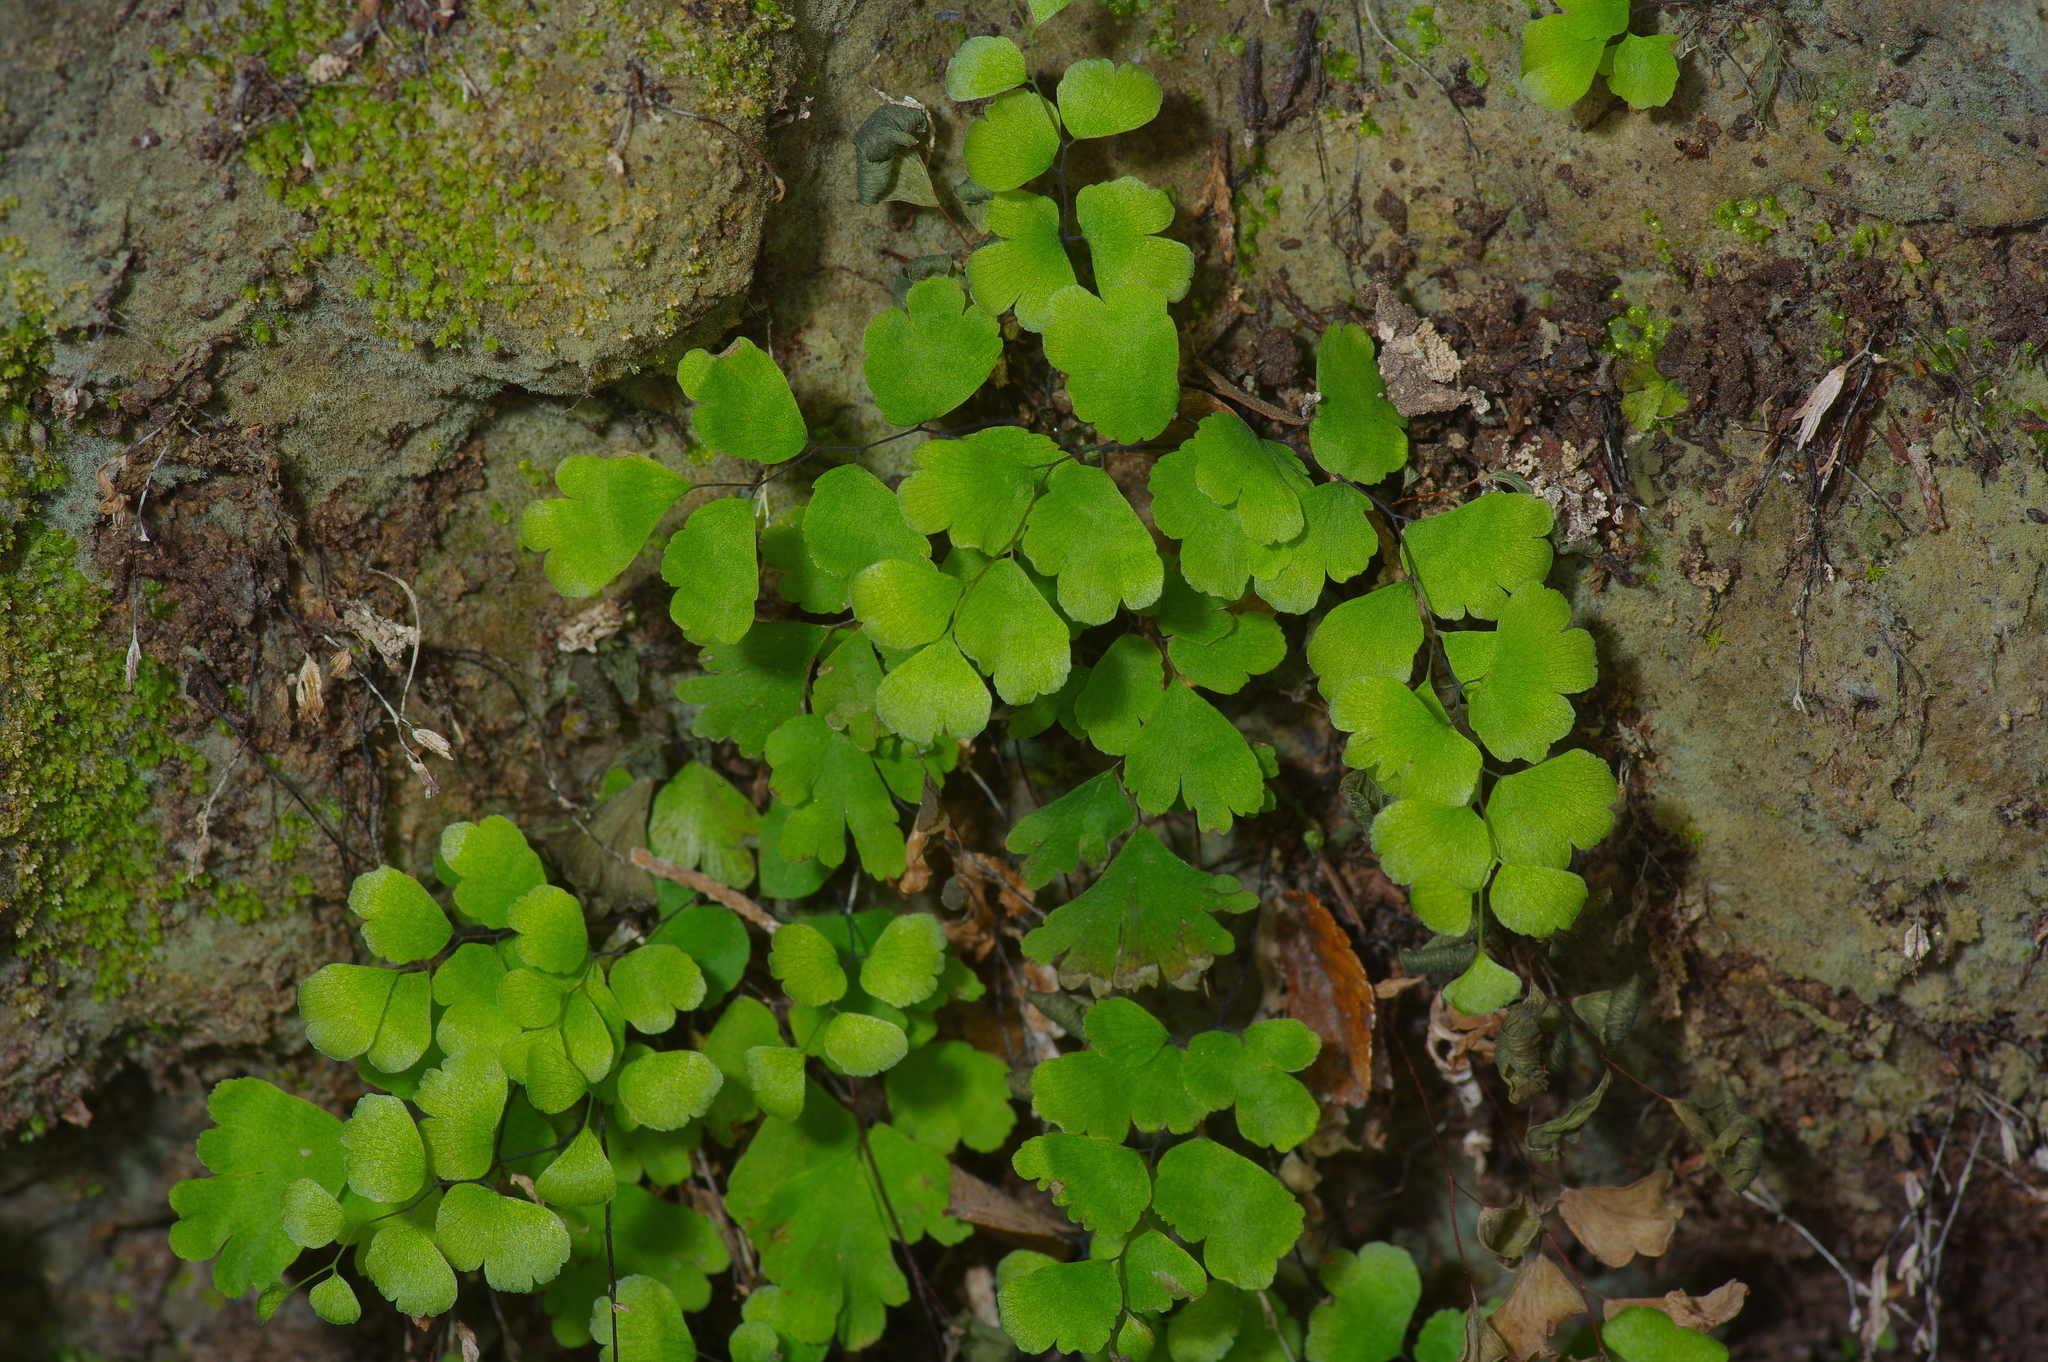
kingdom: Plantae
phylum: Tracheophyta
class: Polypodiopsida
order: Polypodiales
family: Pteridaceae
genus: Adiantum
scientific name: Adiantum capillus-veneris
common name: Maidenhair fern
